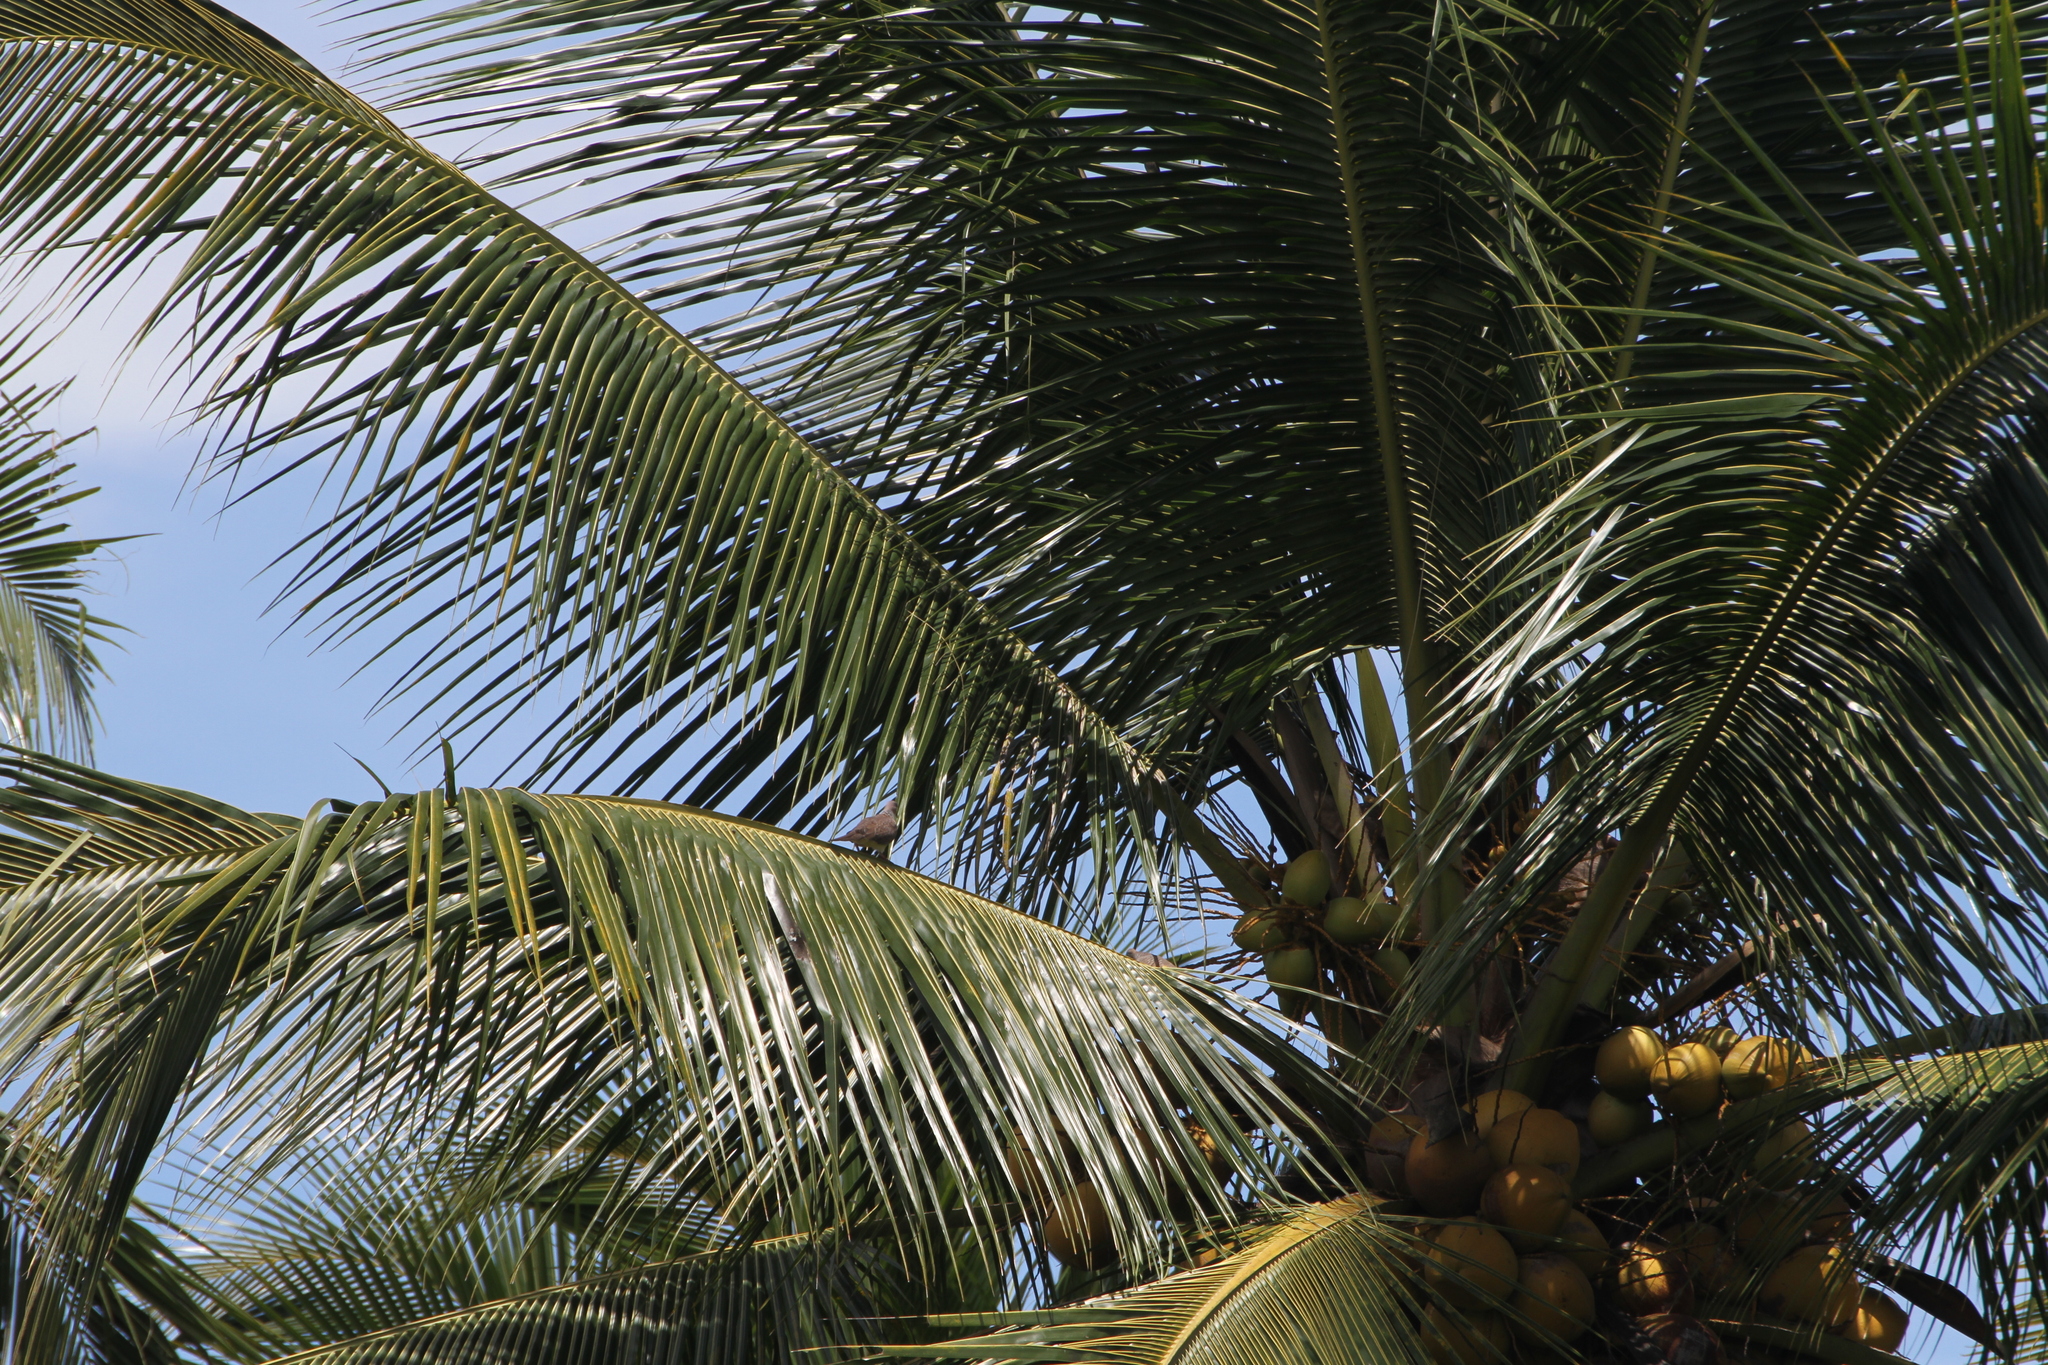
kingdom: Animalia
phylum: Chordata
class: Aves
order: Columbiformes
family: Columbidae
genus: Spilopelia
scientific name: Spilopelia chinensis
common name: Spotted dove
